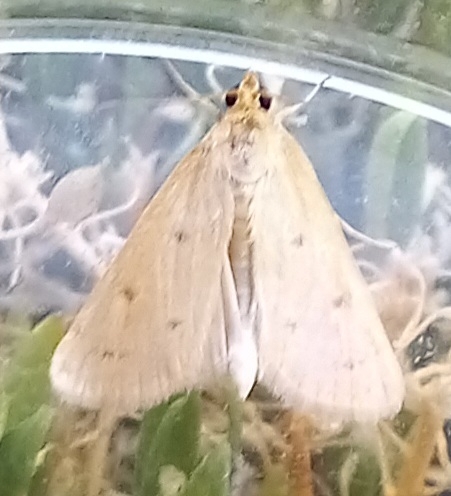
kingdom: Animalia
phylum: Arthropoda
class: Insecta
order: Lepidoptera
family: Crambidae
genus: Achyra
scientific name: Achyra nudalis
